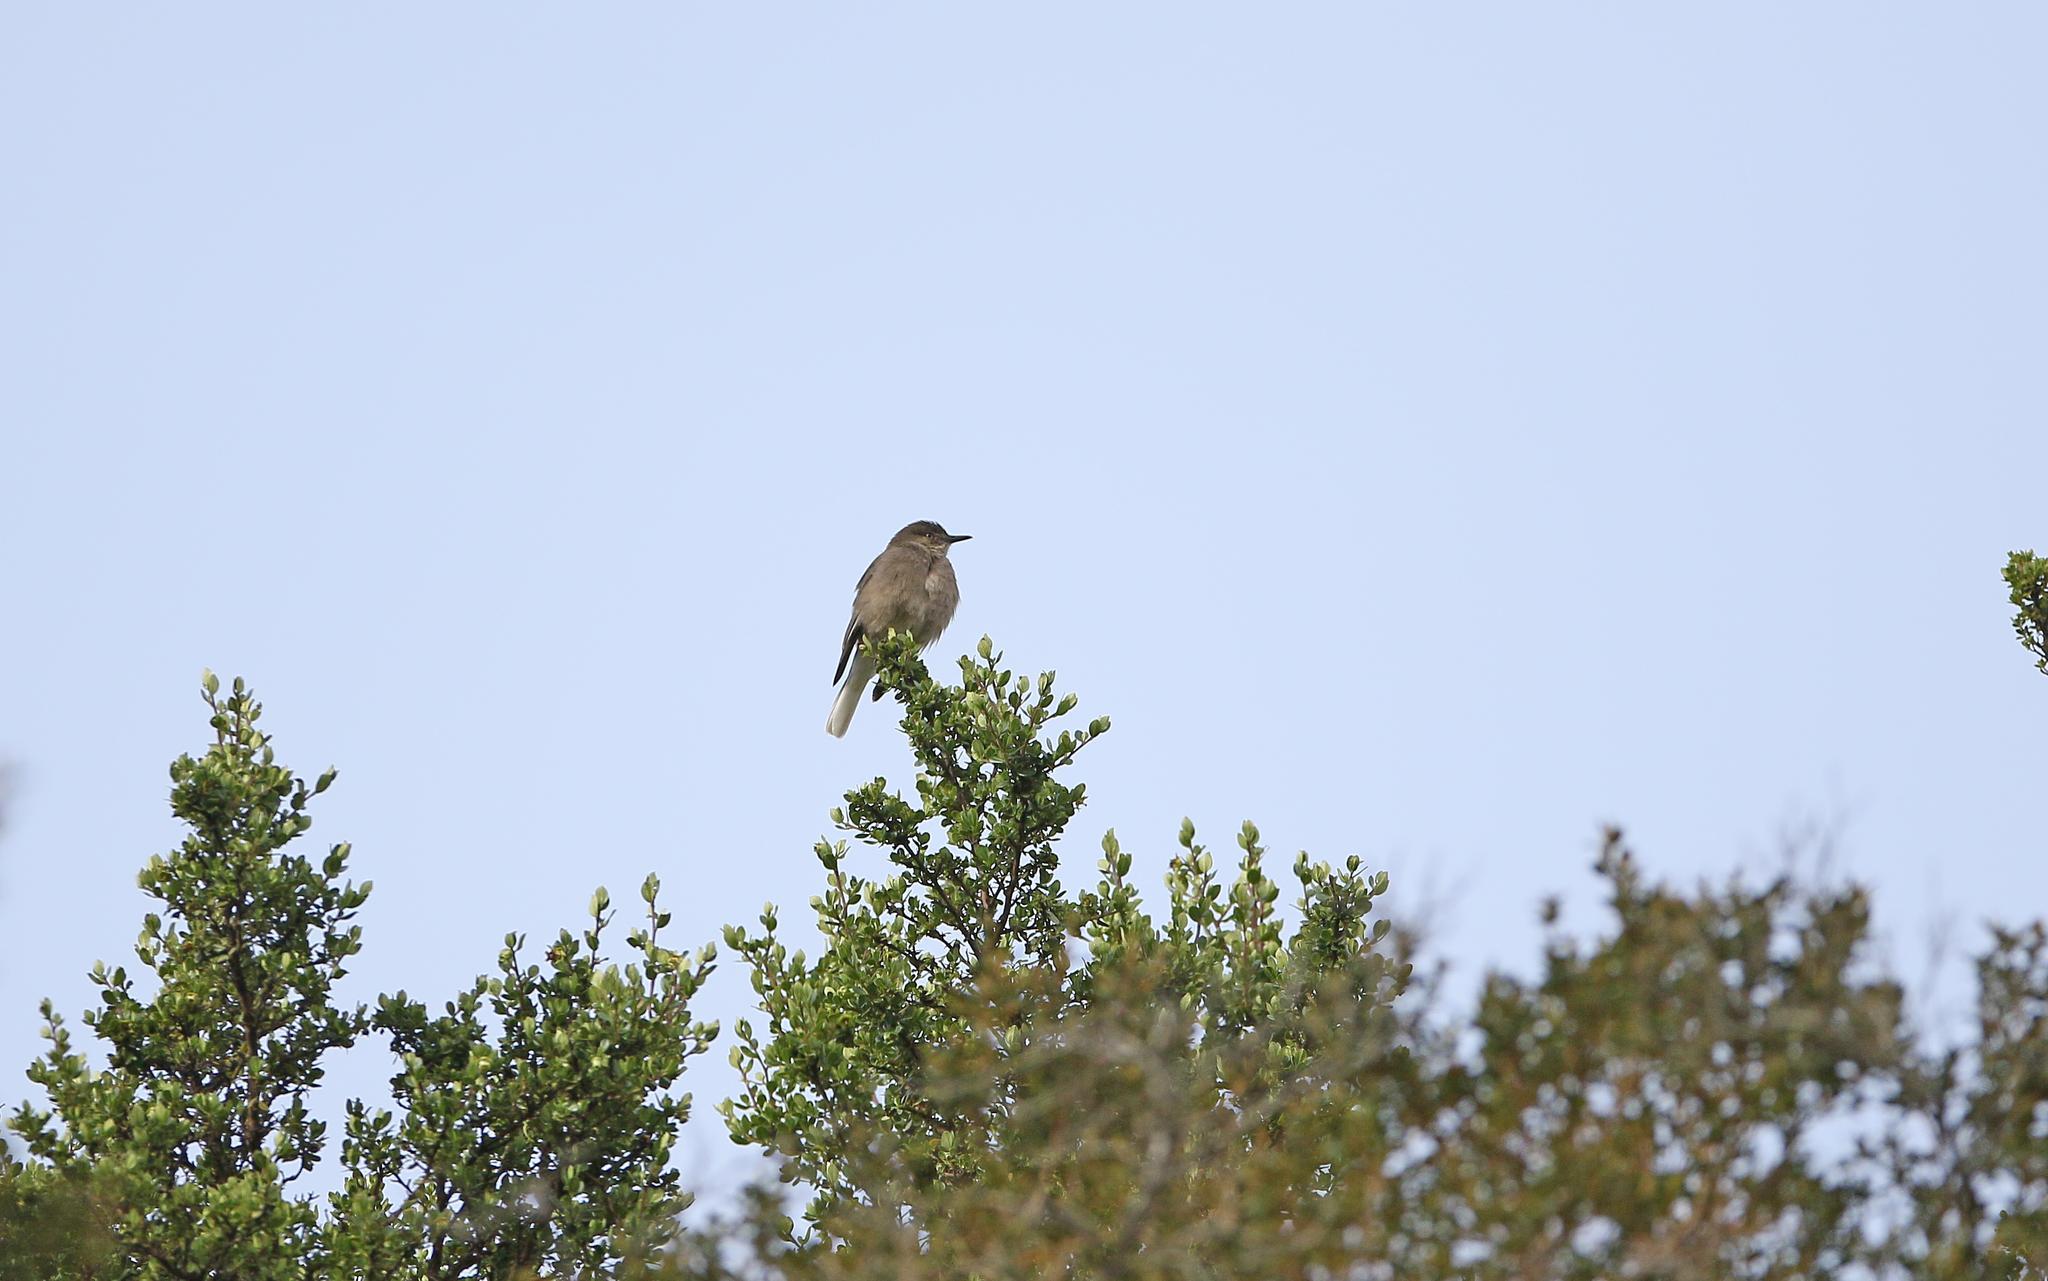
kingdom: Animalia
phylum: Chordata
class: Aves
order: Passeriformes
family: Tyrannidae
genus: Agriornis
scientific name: Agriornis montanus
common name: Black-billed shrike-tyrant
